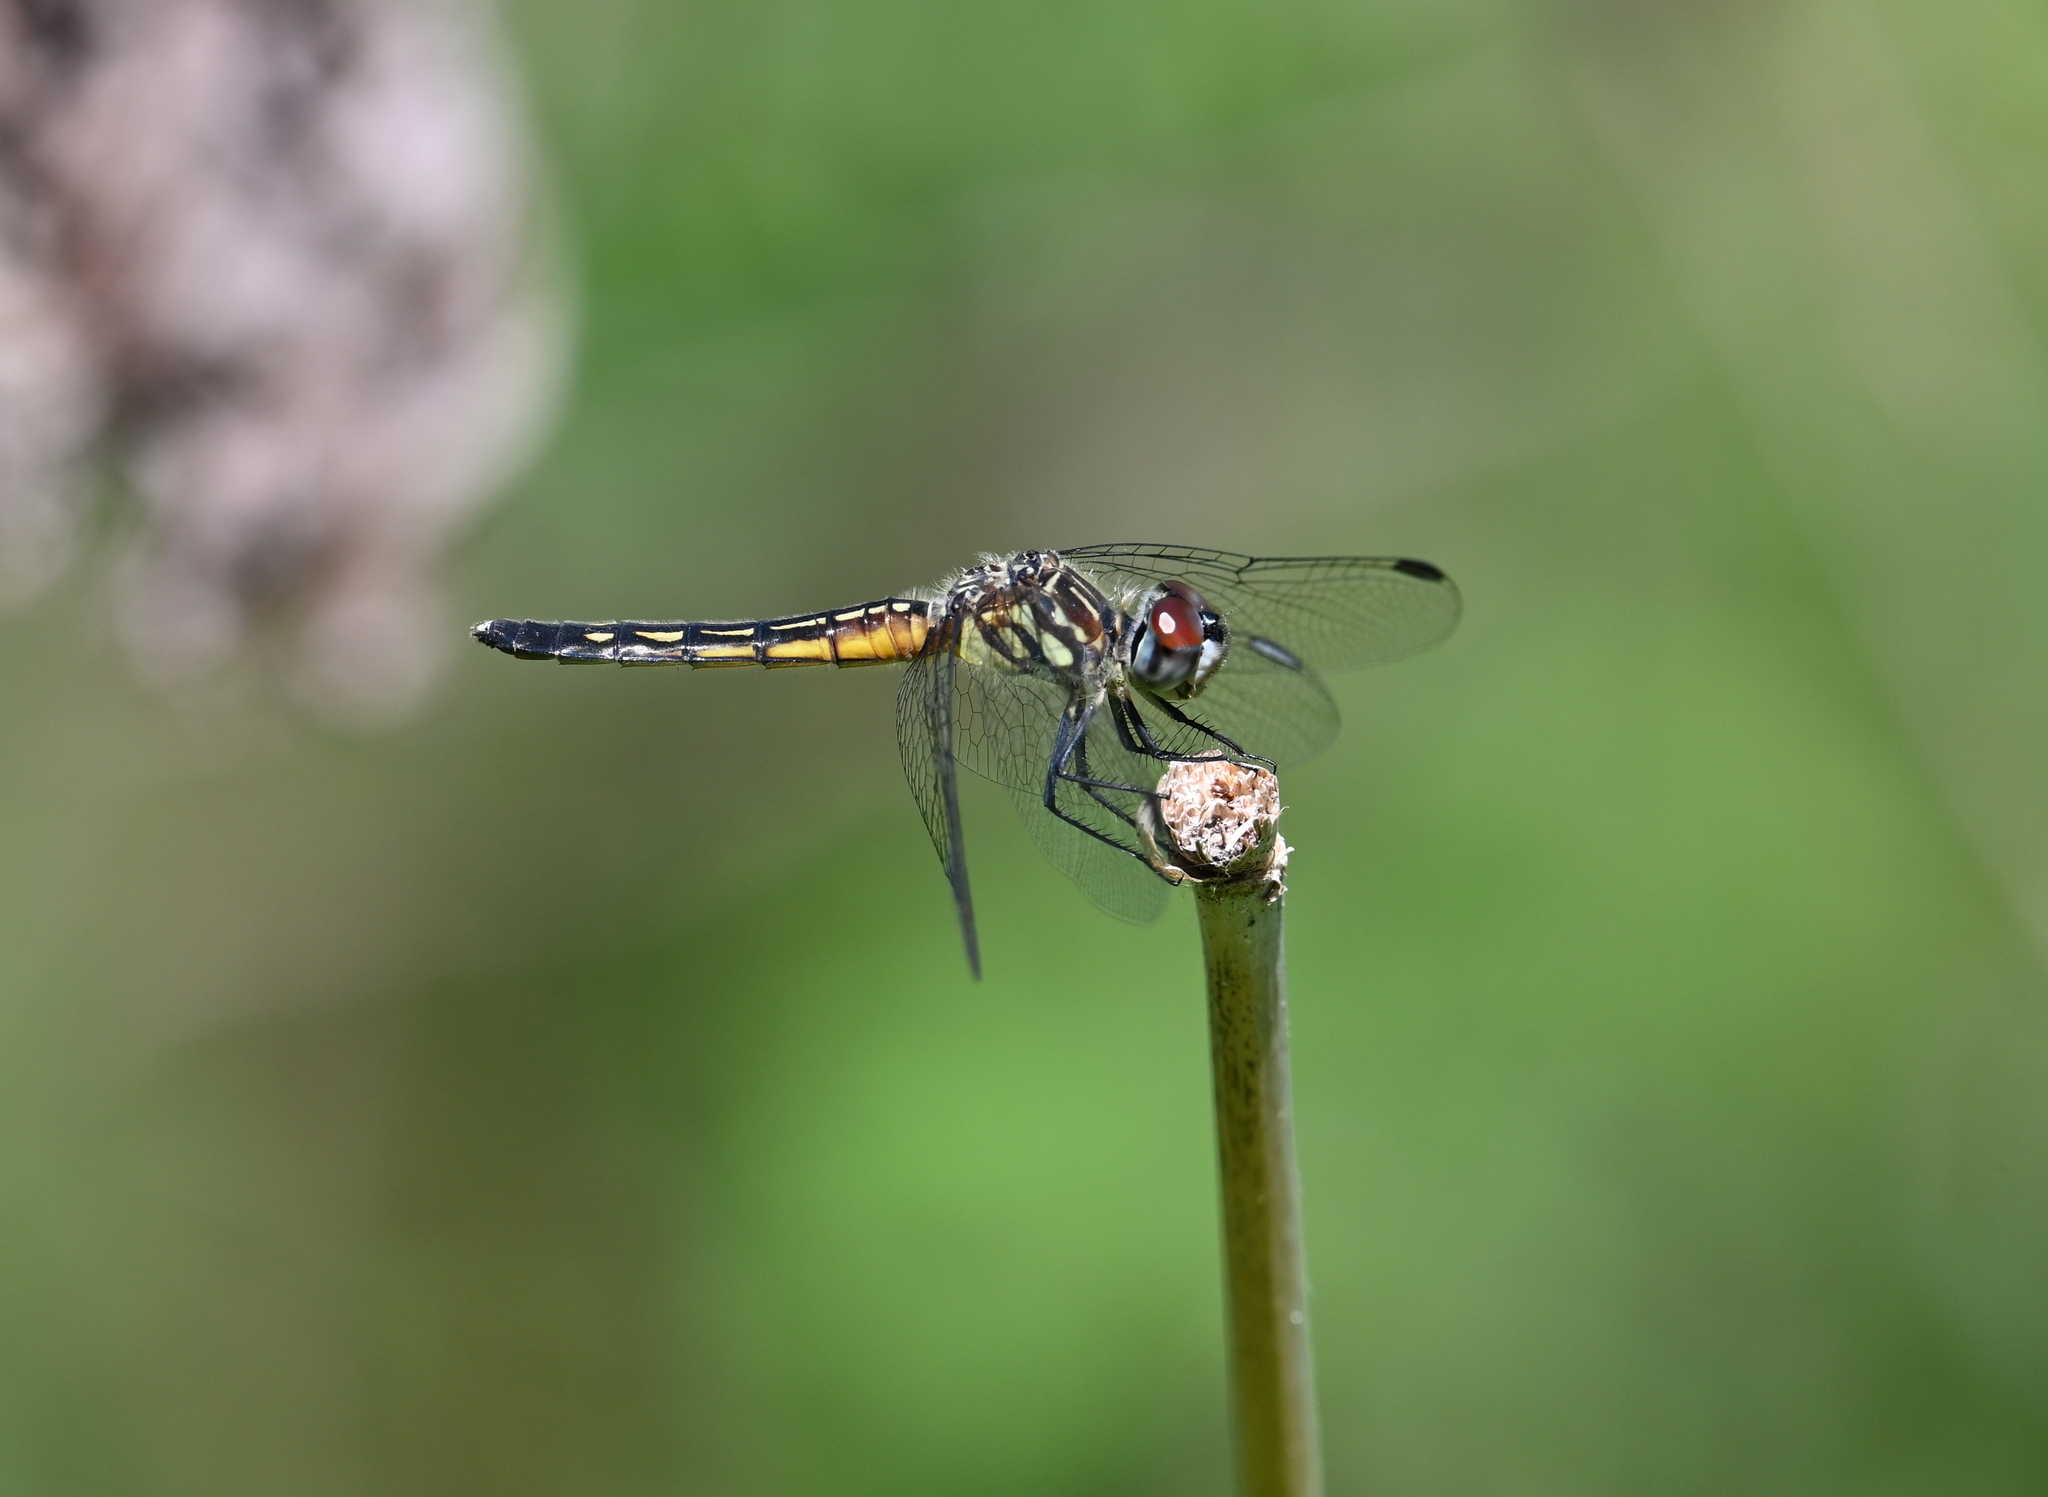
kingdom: Animalia
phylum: Arthropoda
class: Insecta
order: Odonata
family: Libellulidae
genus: Pachydiplax
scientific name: Pachydiplax longipennis
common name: Blue dasher
